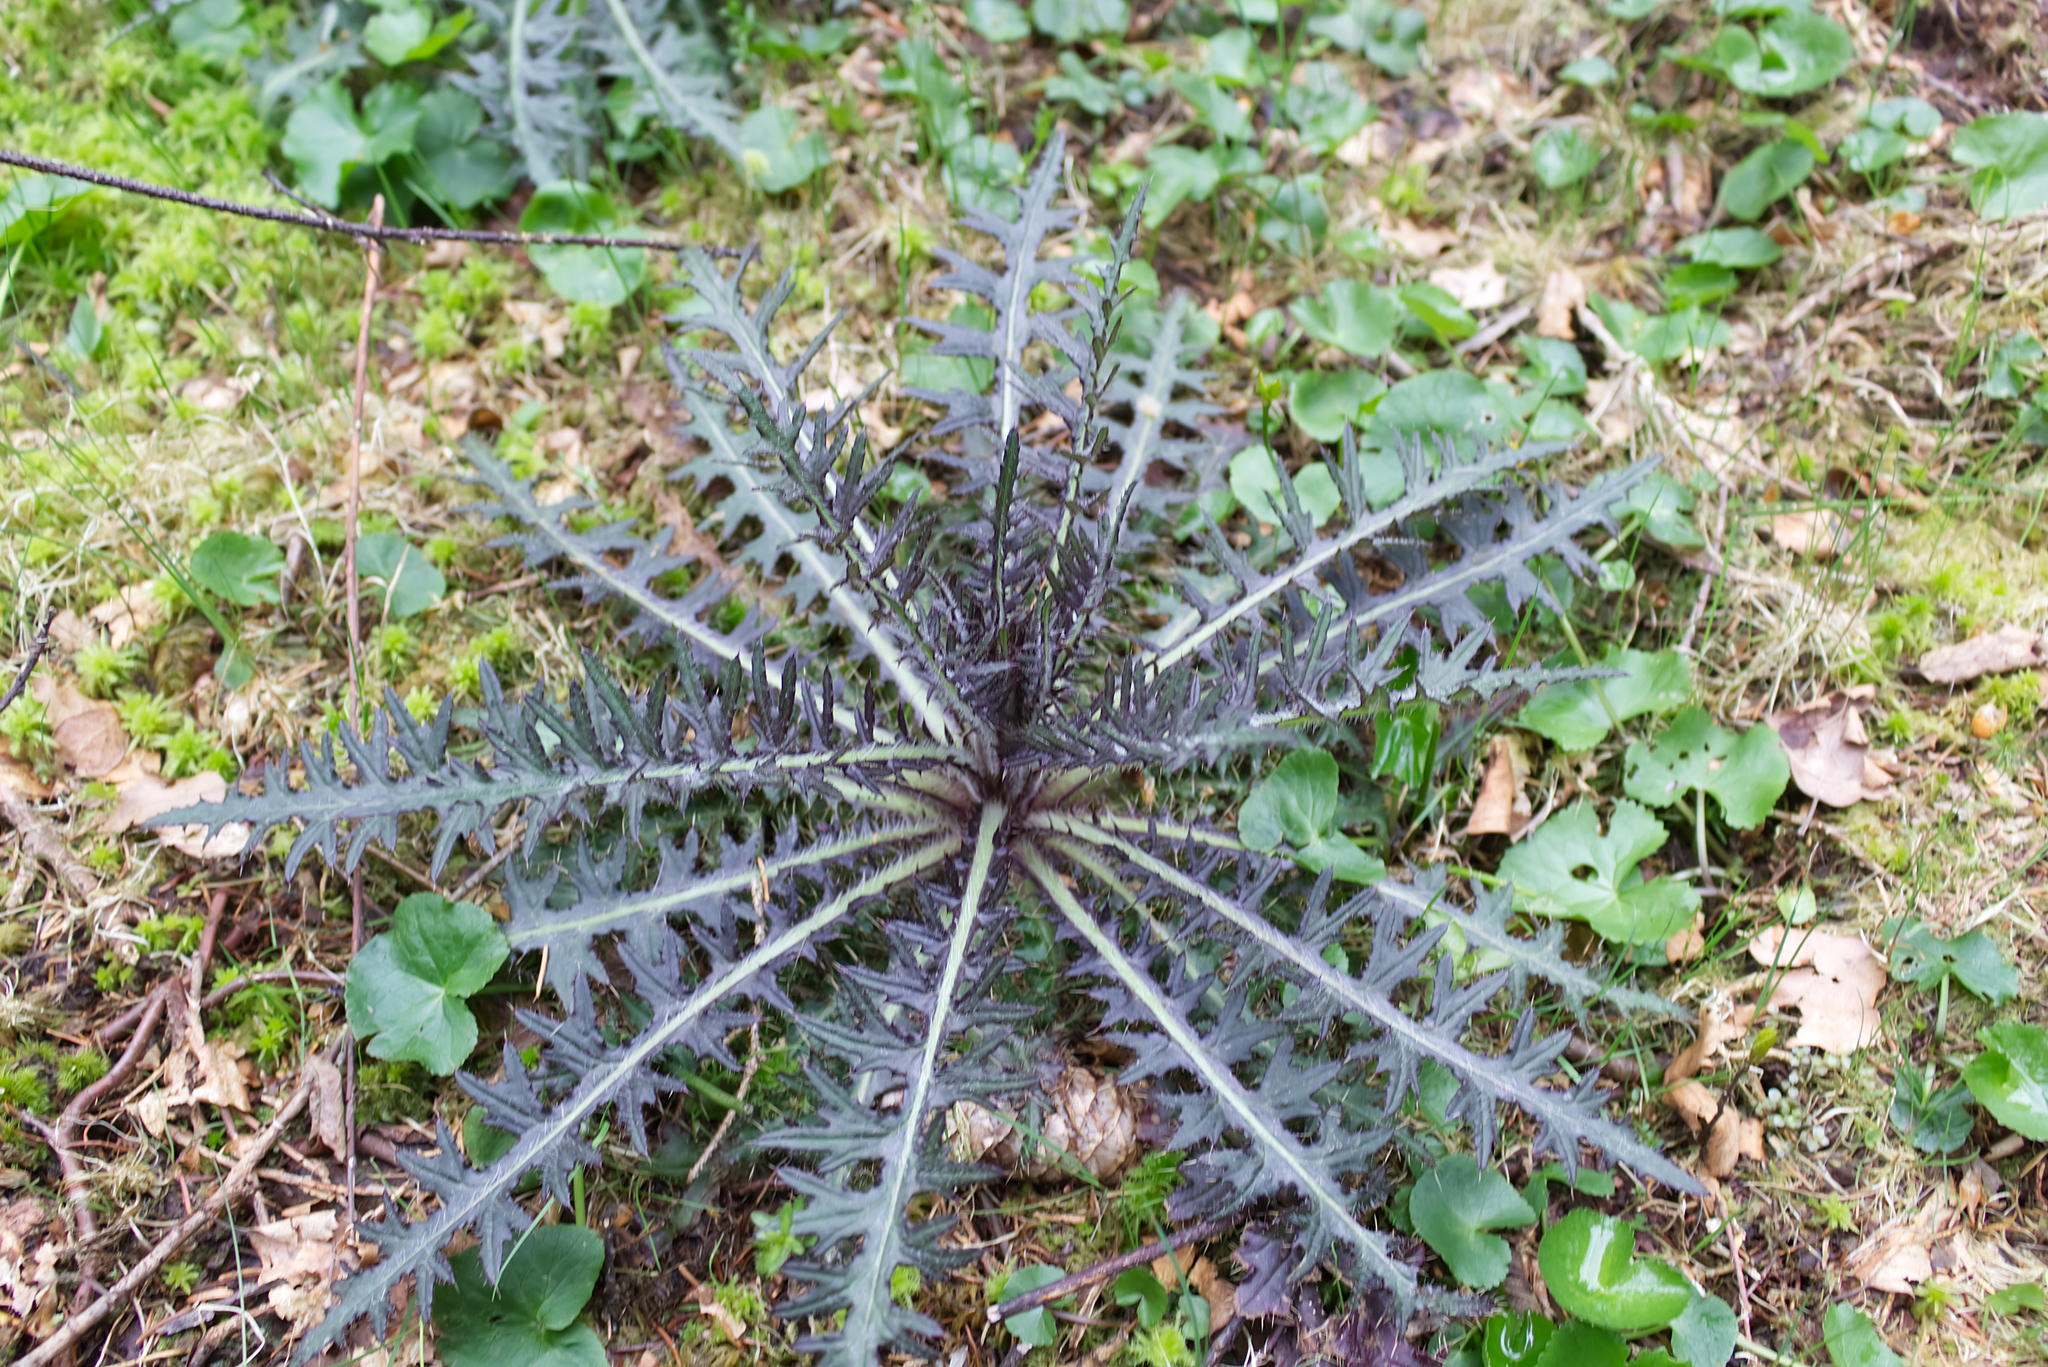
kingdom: Plantae
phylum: Tracheophyta
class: Magnoliopsida
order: Asterales
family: Asteraceae
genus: Cirsium
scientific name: Cirsium palustre
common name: Marsh thistle
